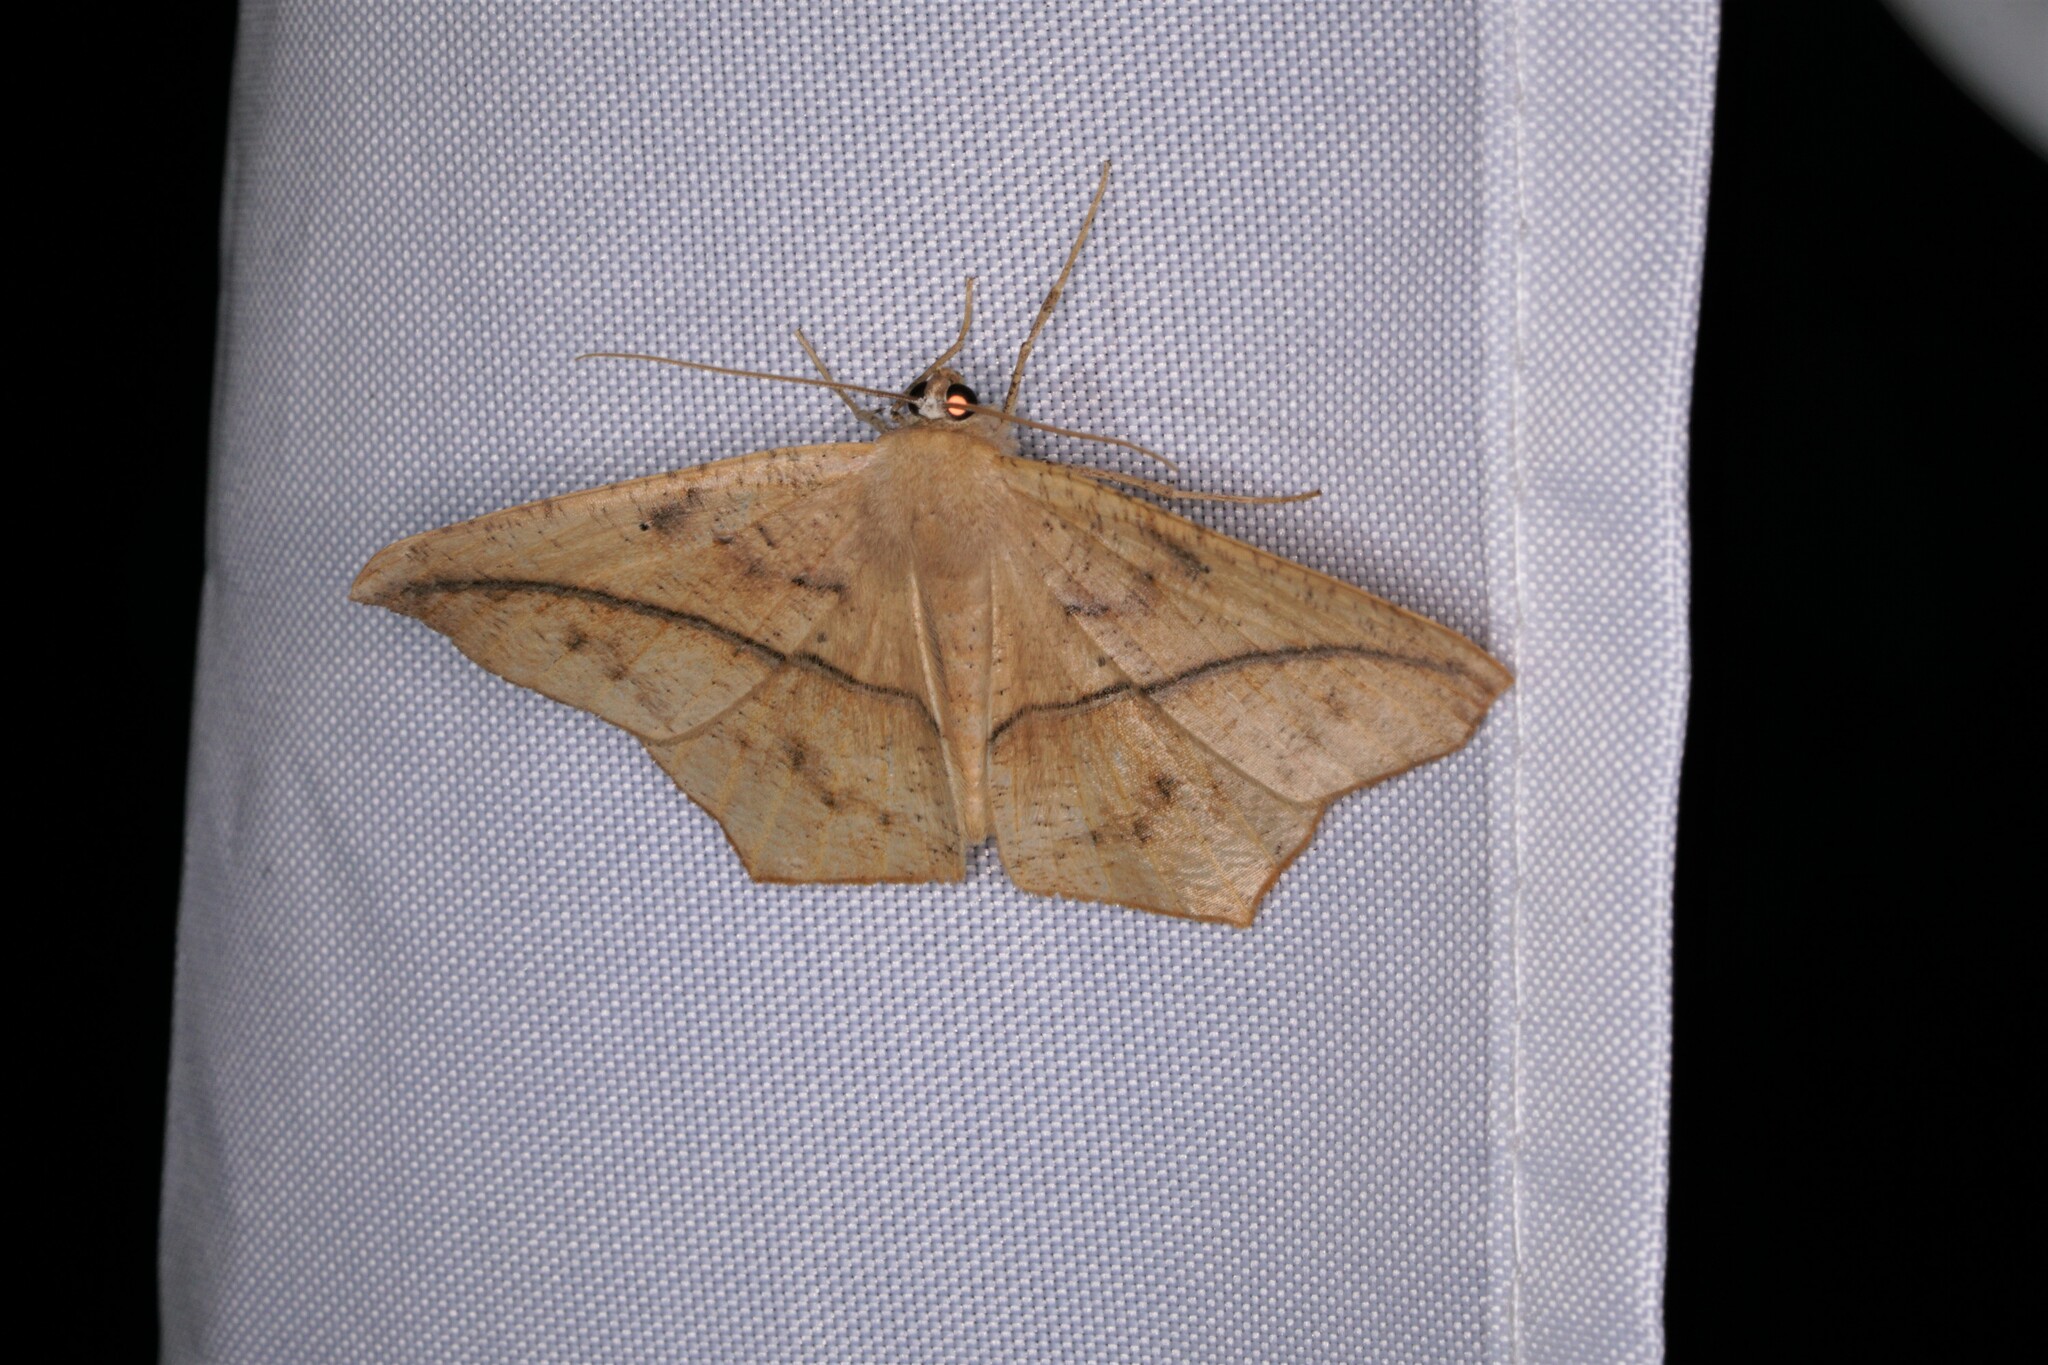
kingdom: Animalia
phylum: Arthropoda
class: Insecta
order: Lepidoptera
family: Geometridae
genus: Prochoerodes
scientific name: Prochoerodes lineola
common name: Large maple spanworm
